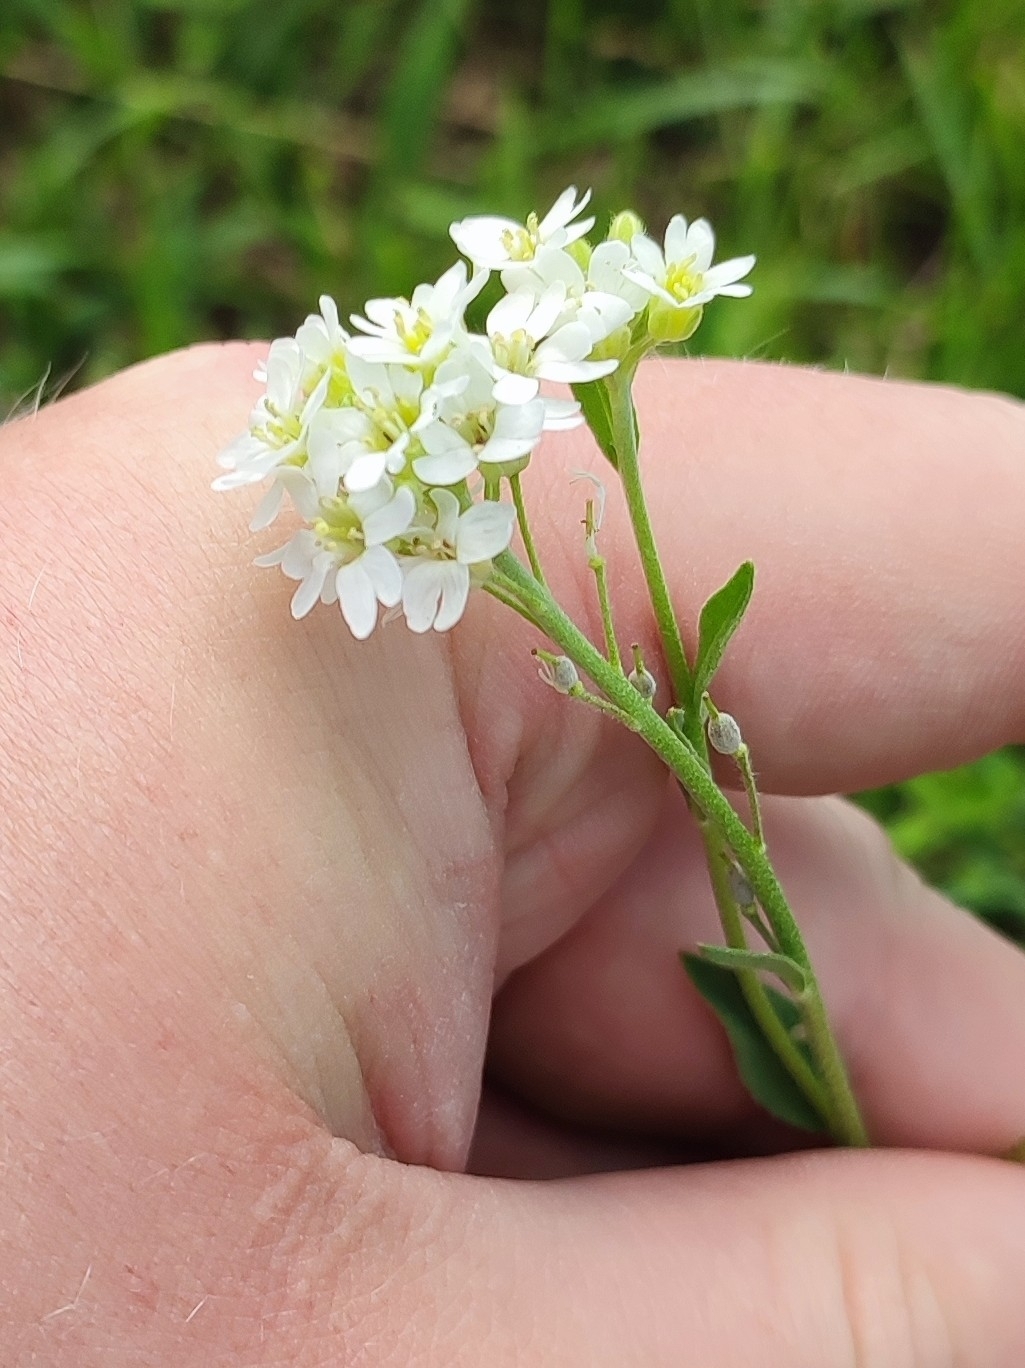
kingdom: Plantae
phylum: Tracheophyta
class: Magnoliopsida
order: Brassicales
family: Brassicaceae
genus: Berteroa
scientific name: Berteroa incana
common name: Hoary alison
